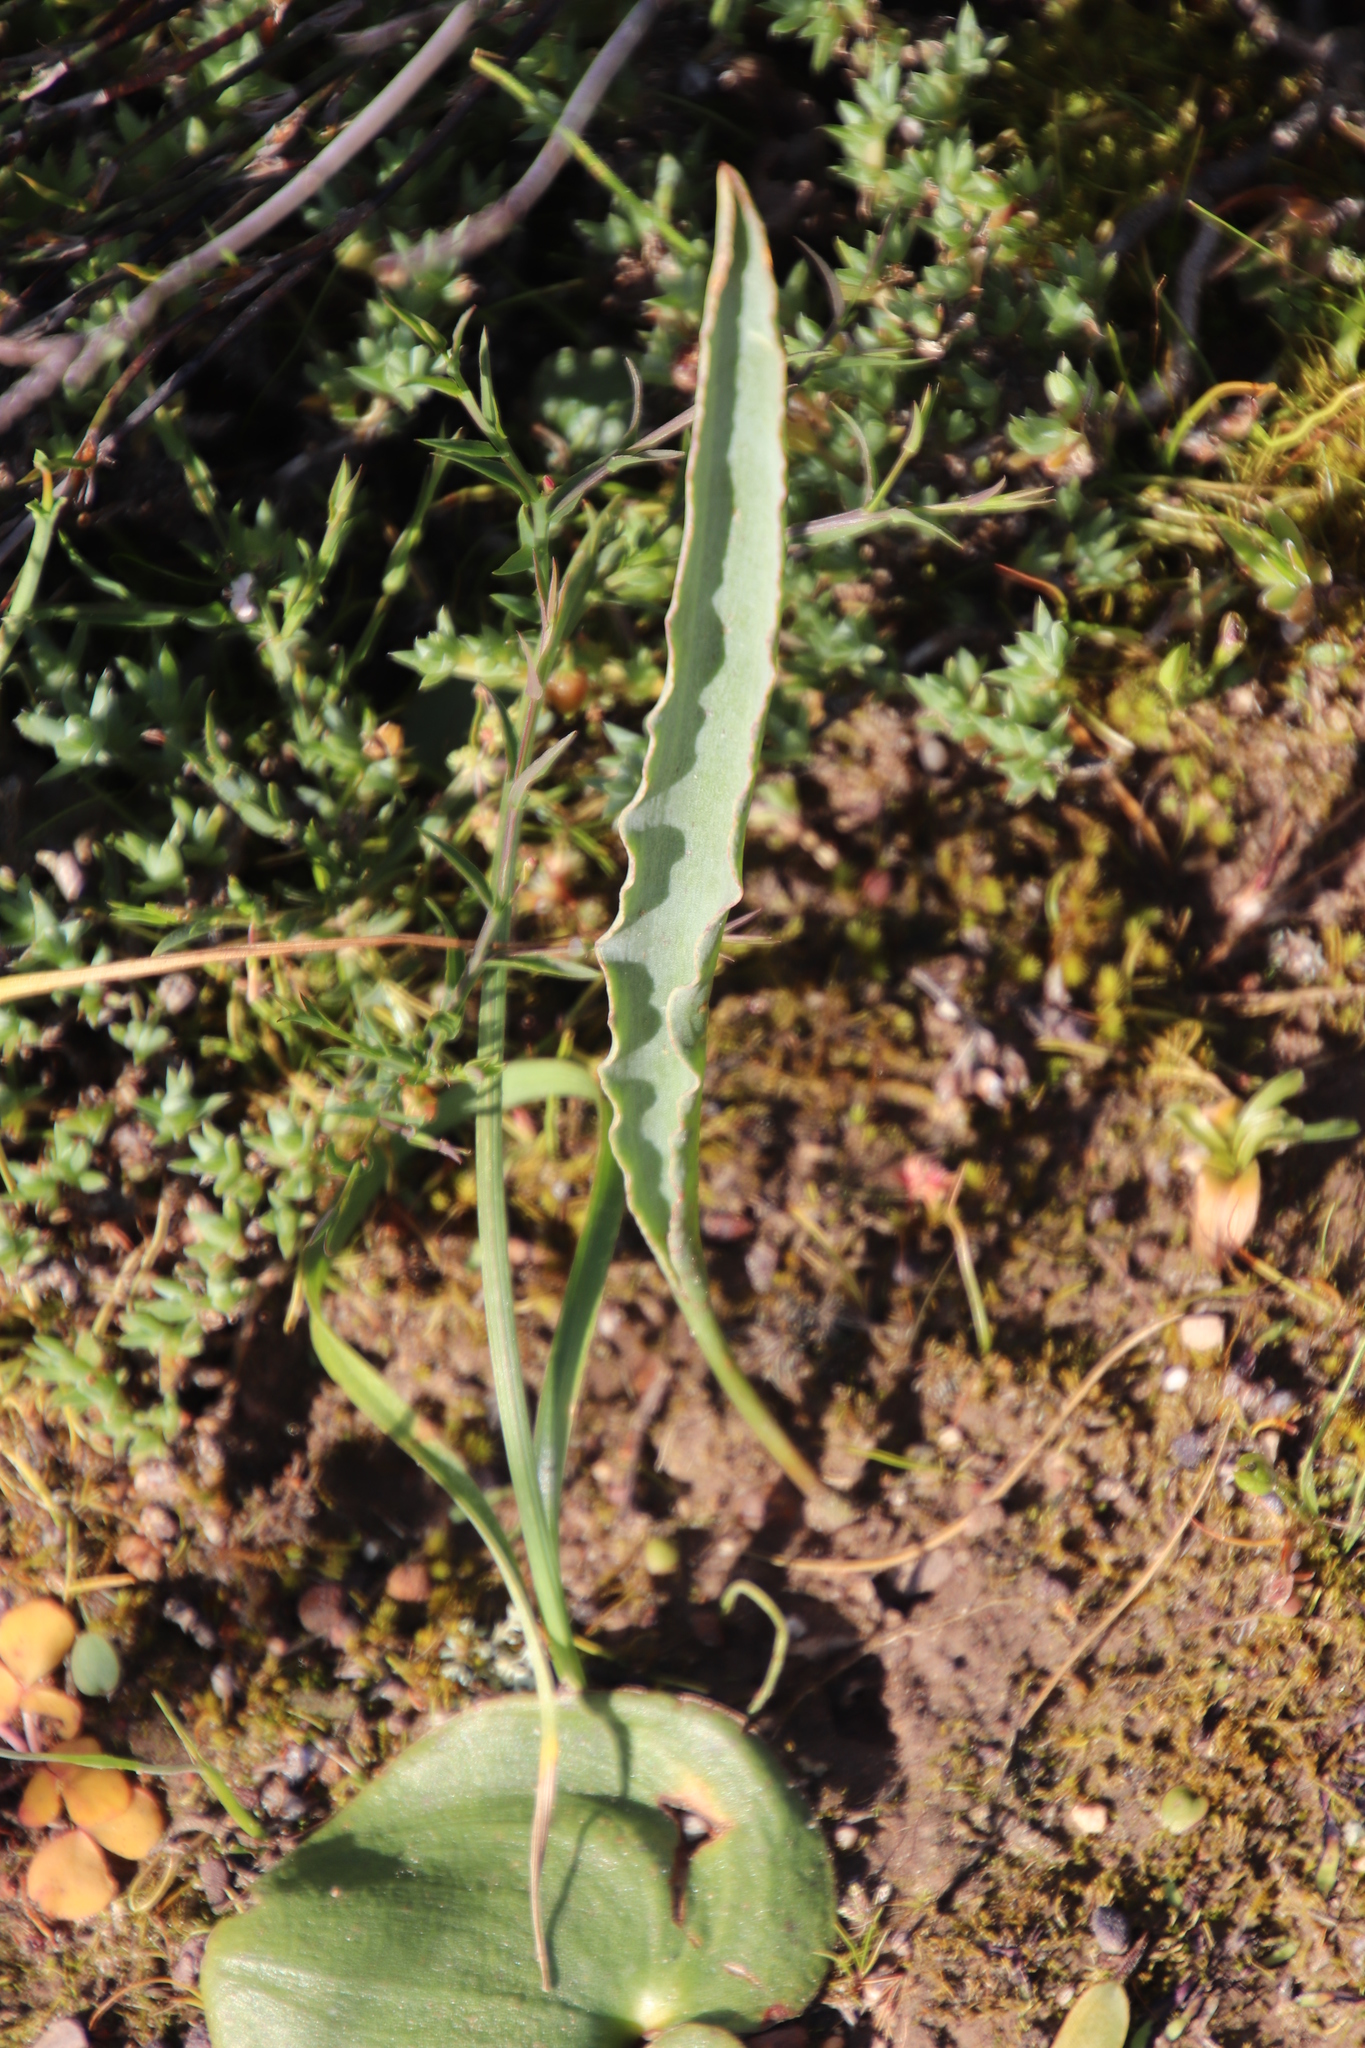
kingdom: Plantae
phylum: Tracheophyta
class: Liliopsida
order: Asparagales
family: Asparagaceae
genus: Eriospermum
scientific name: Eriospermum lanceifolium
